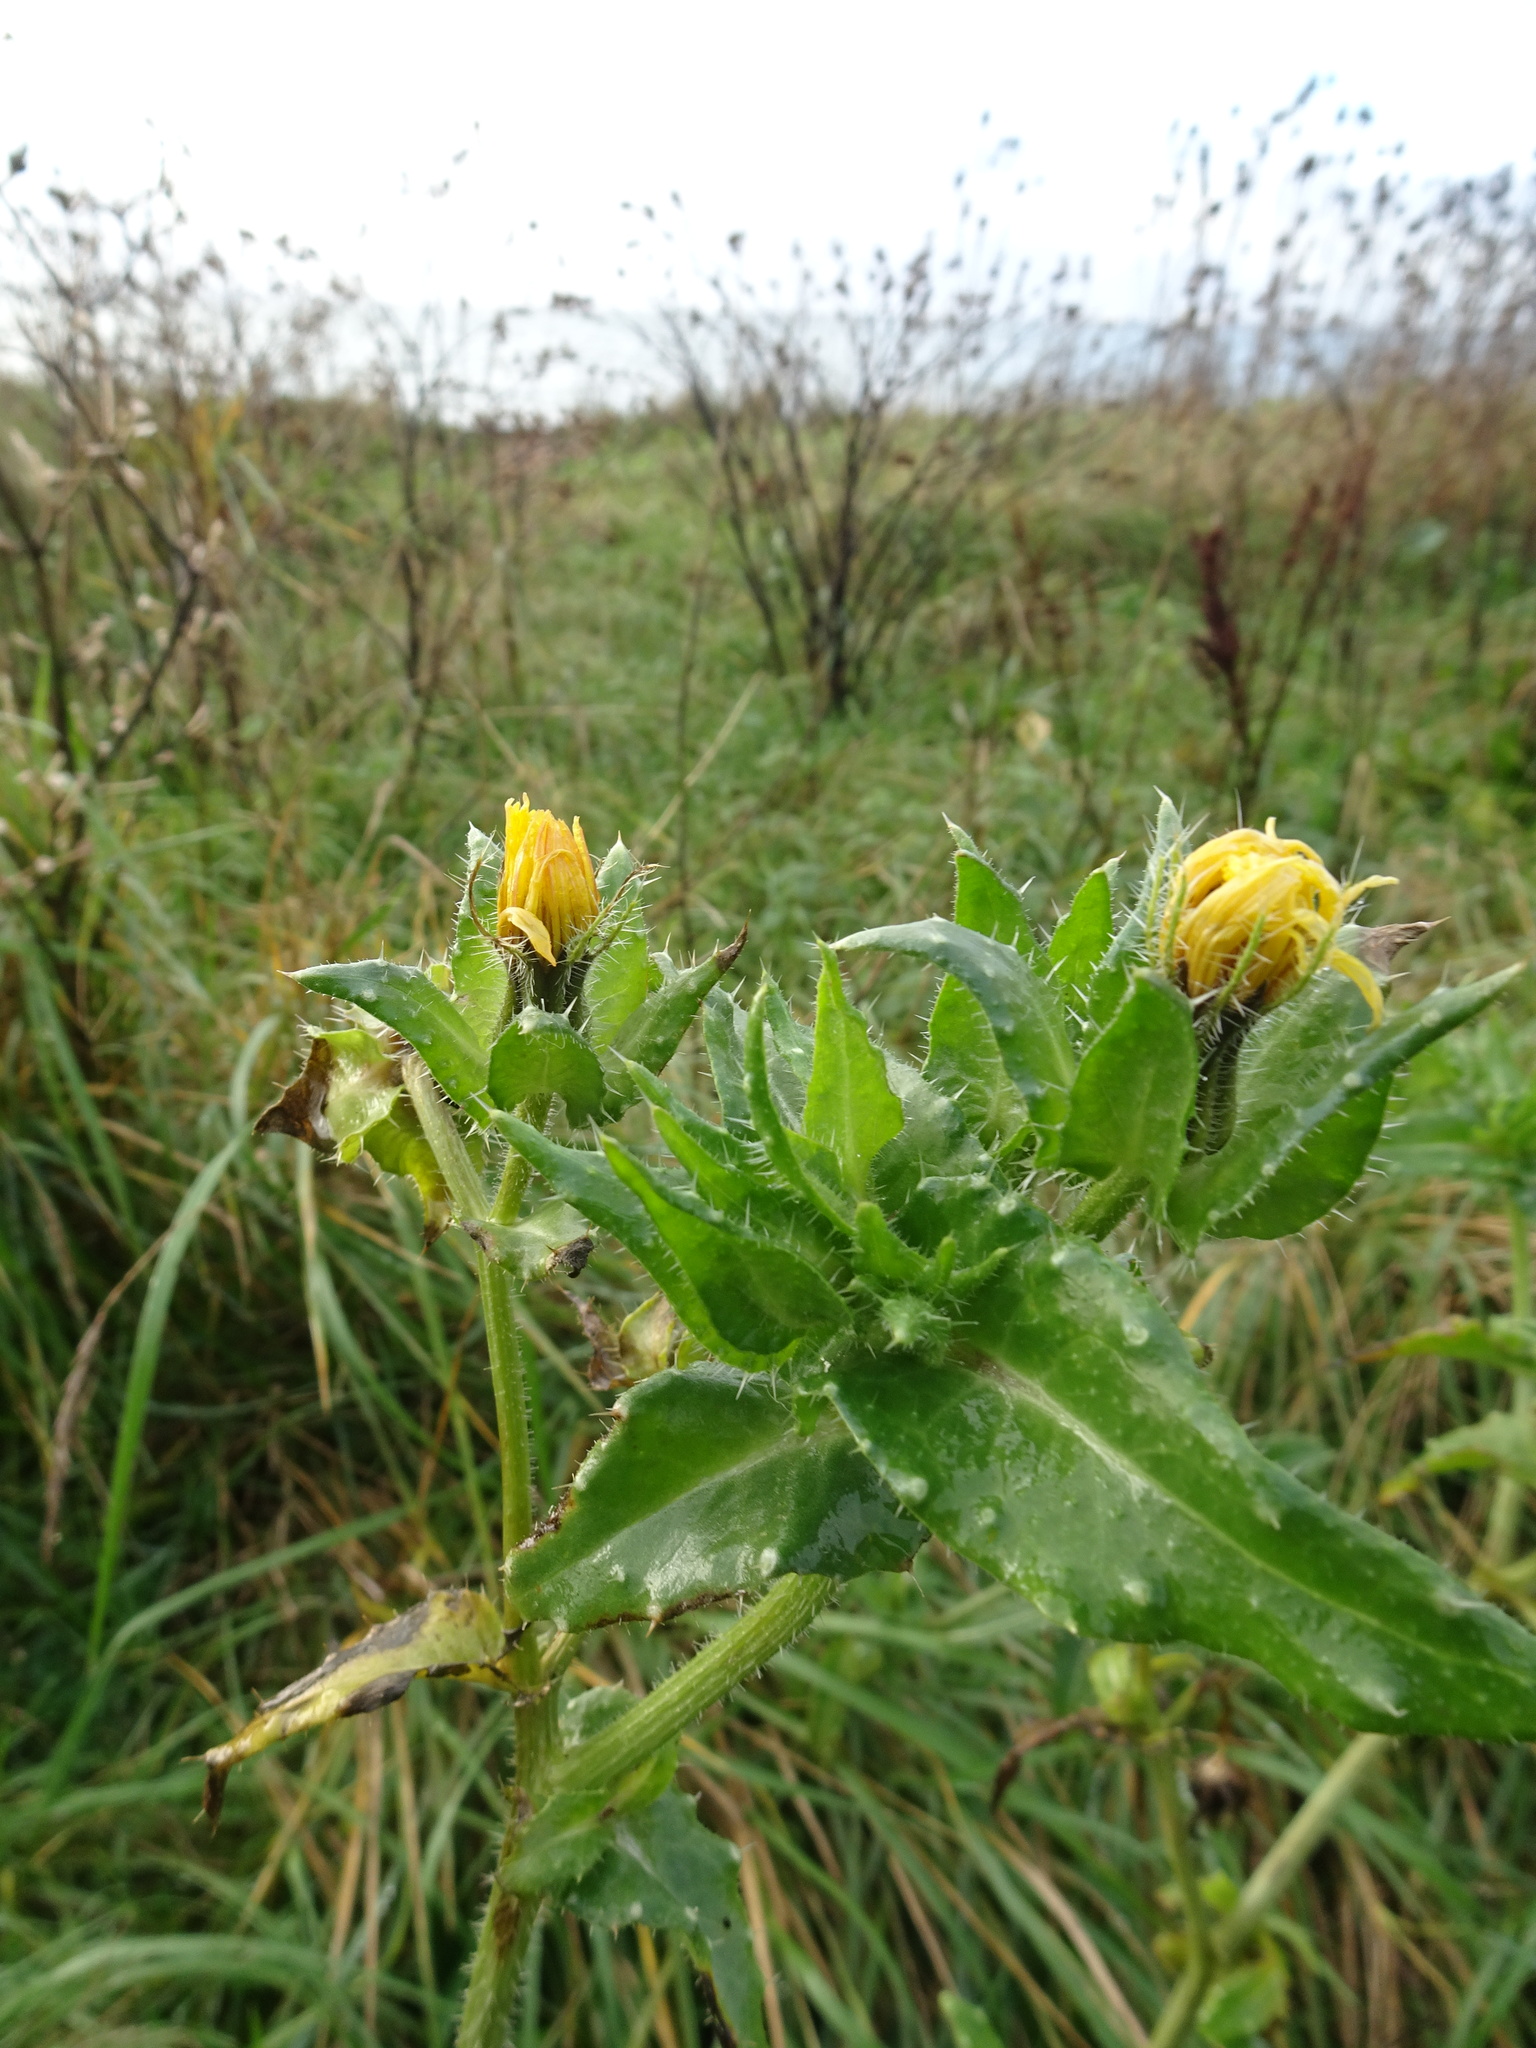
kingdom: Plantae
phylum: Tracheophyta
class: Magnoliopsida
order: Asterales
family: Asteraceae
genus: Helminthotheca
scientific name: Helminthotheca echioides
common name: Ox-tongue
